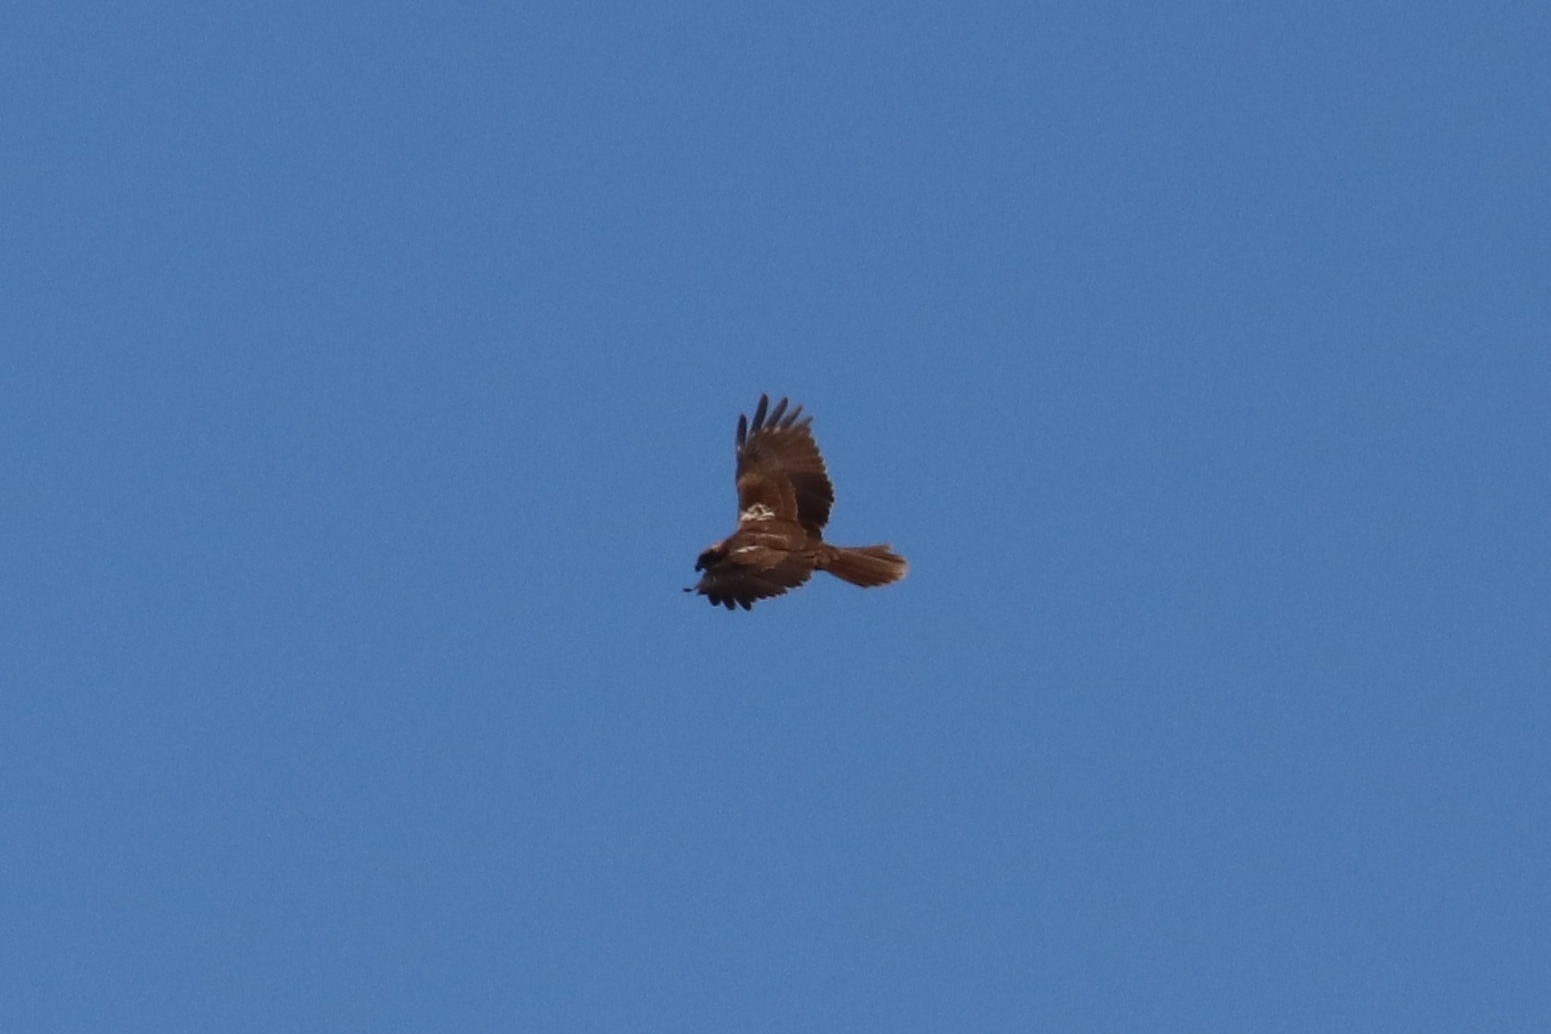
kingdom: Animalia
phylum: Chordata
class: Aves
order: Accipitriformes
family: Accipitridae
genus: Circus
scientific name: Circus aeruginosus
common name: Western marsh harrier
